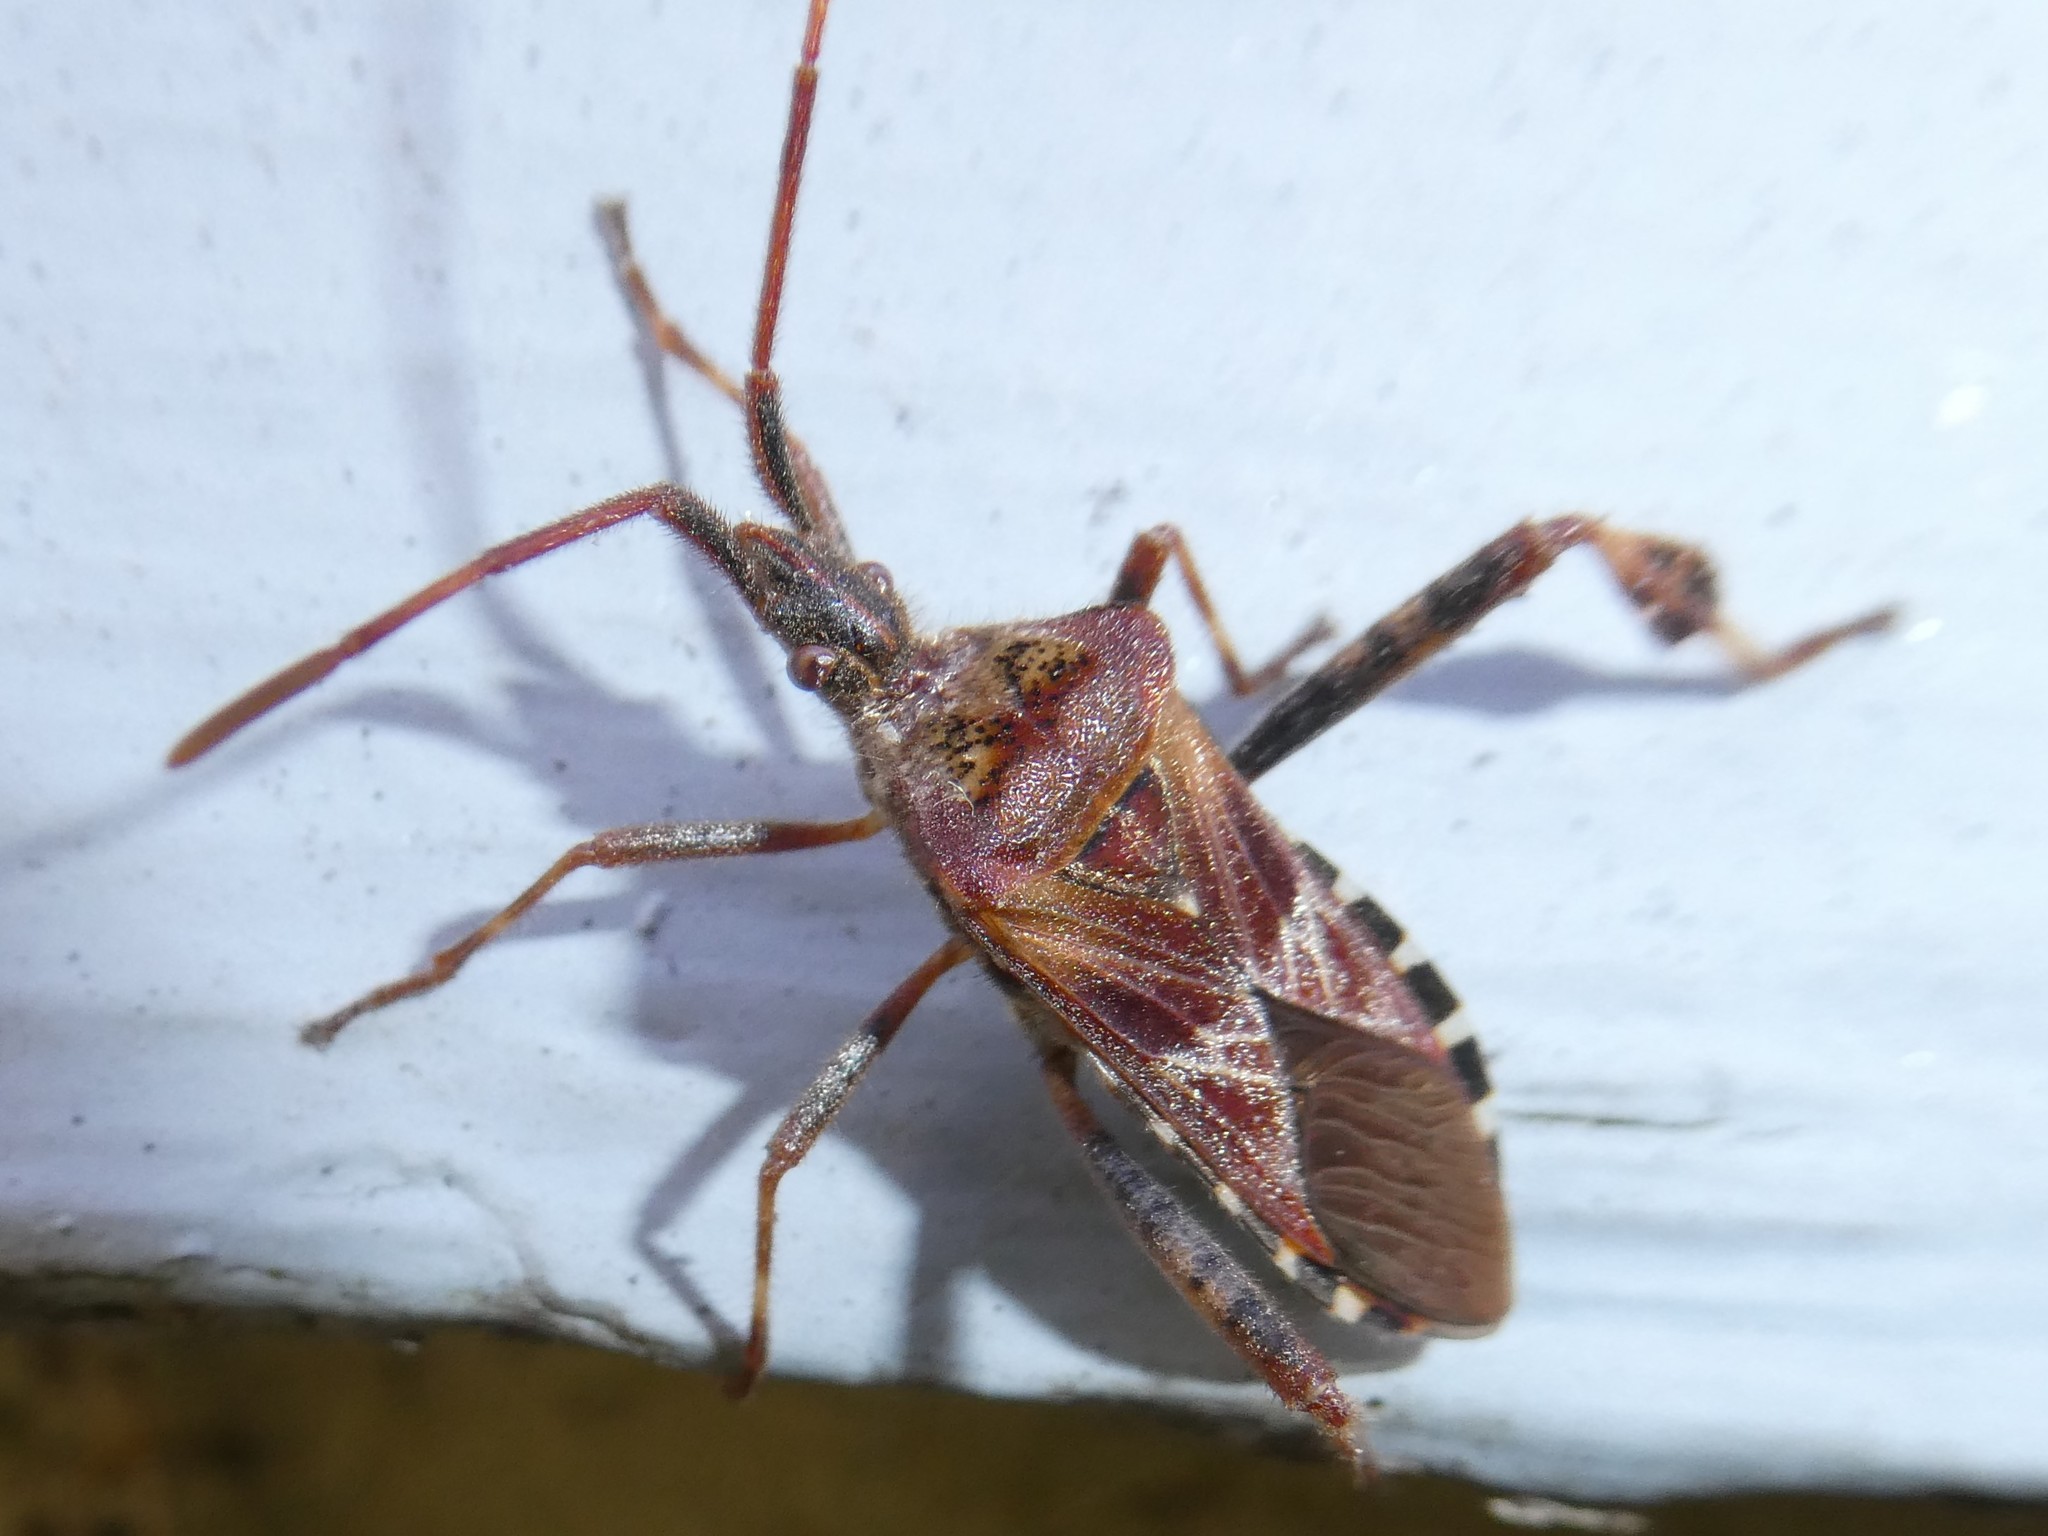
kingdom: Animalia
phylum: Arthropoda
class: Insecta
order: Hemiptera
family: Coreidae
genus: Leptoglossus
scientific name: Leptoglossus occidentalis
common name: Western conifer-seed bug
